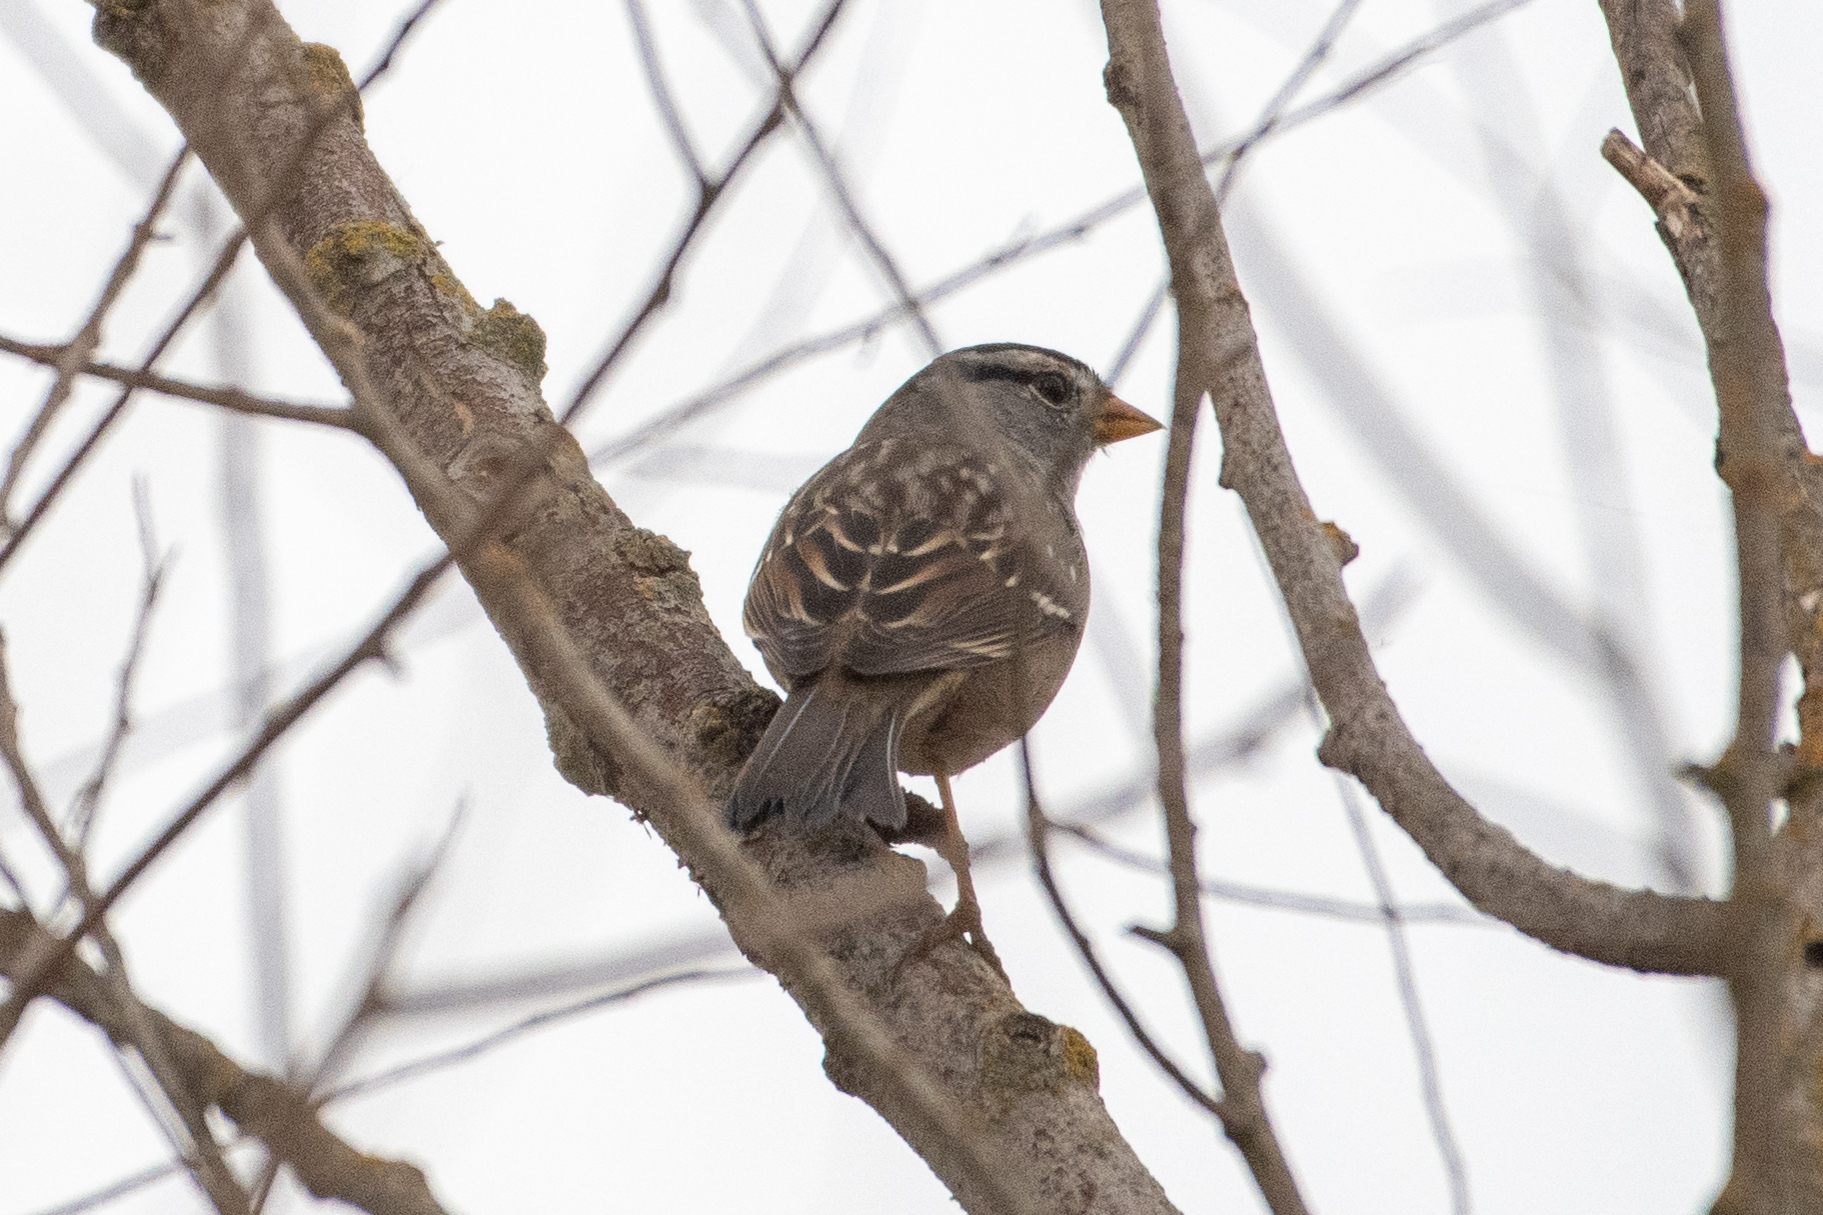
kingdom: Animalia
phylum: Chordata
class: Aves
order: Passeriformes
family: Passerellidae
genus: Zonotrichia
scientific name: Zonotrichia leucophrys
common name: White-crowned sparrow
